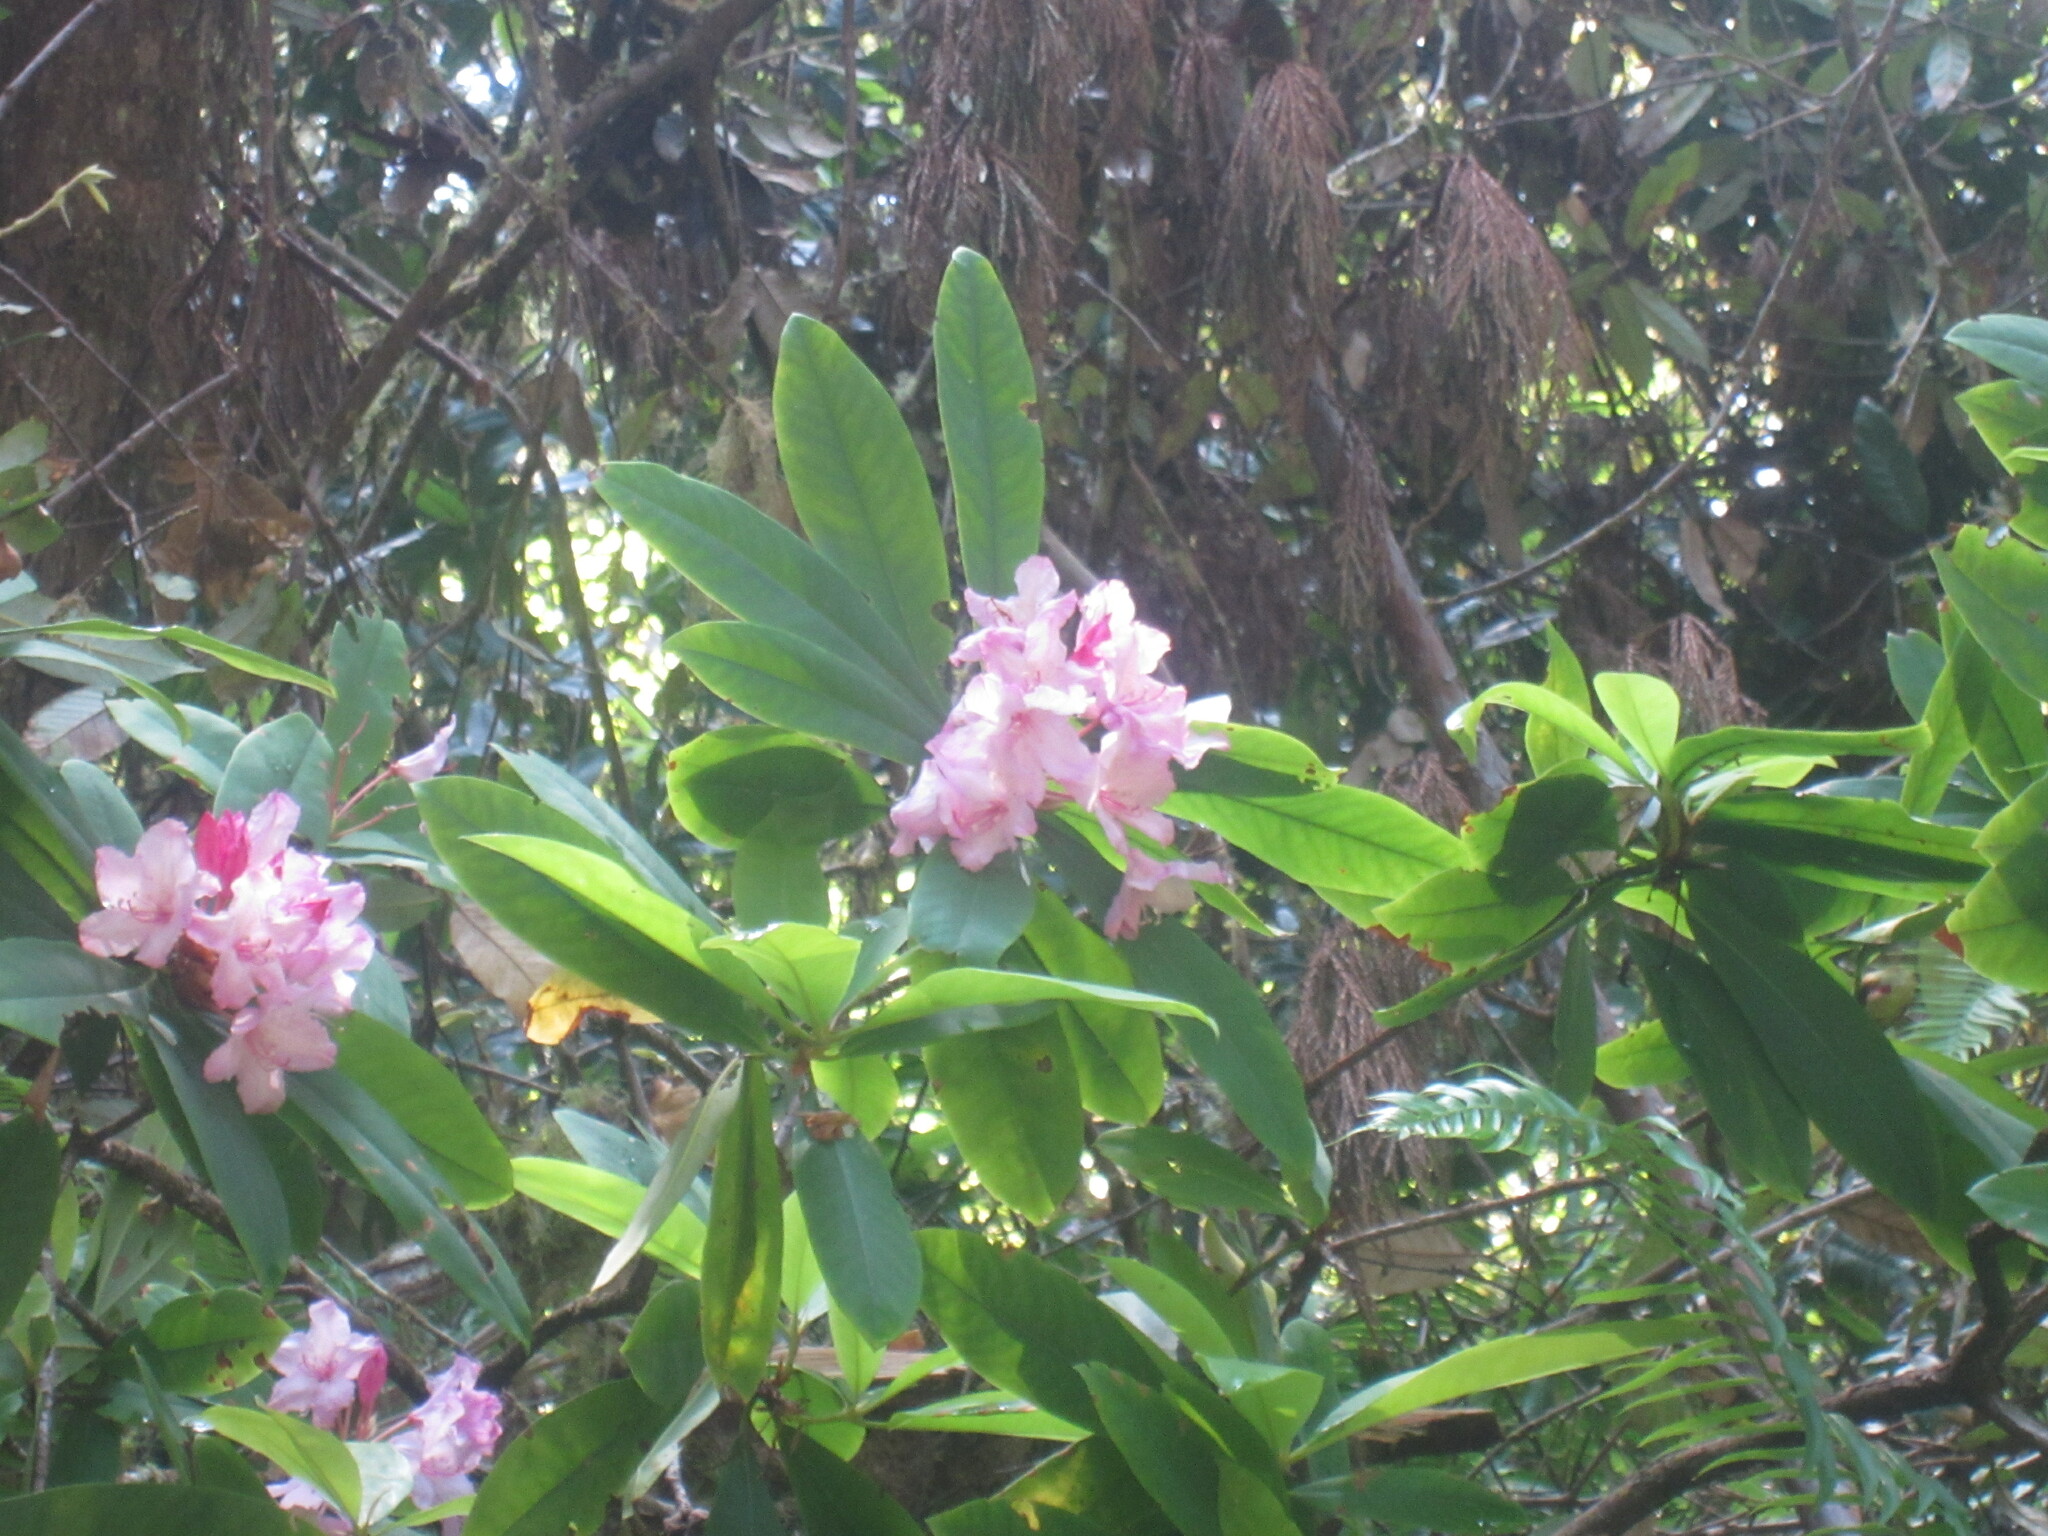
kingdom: Plantae
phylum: Tracheophyta
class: Magnoliopsida
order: Ericales
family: Ericaceae
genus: Rhododendron
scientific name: Rhododendron macrophyllum
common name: California rose bay
